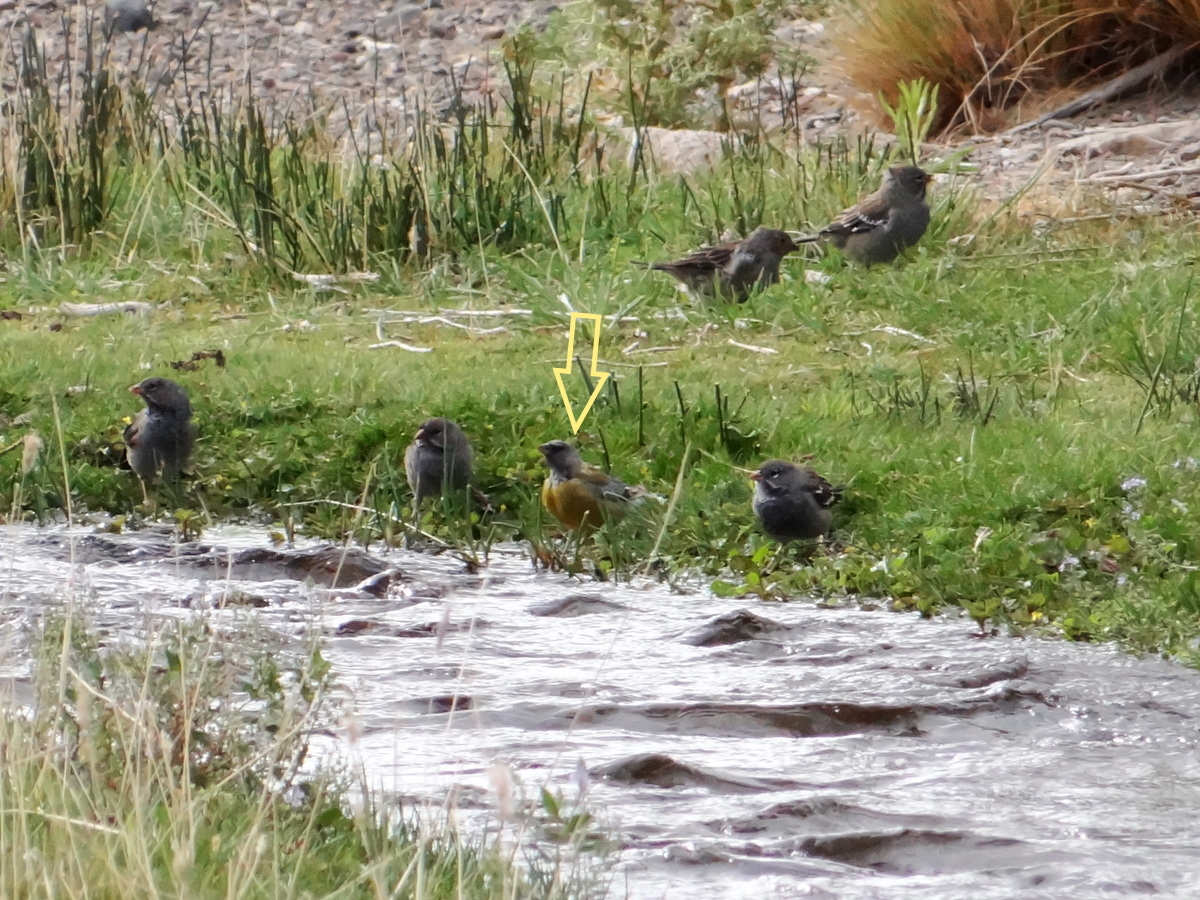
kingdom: Animalia
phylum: Chordata
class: Aves
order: Passeriformes
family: Thraupidae
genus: Phrygilus
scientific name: Phrygilus gayi
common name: Grey-hooded sierra finch
